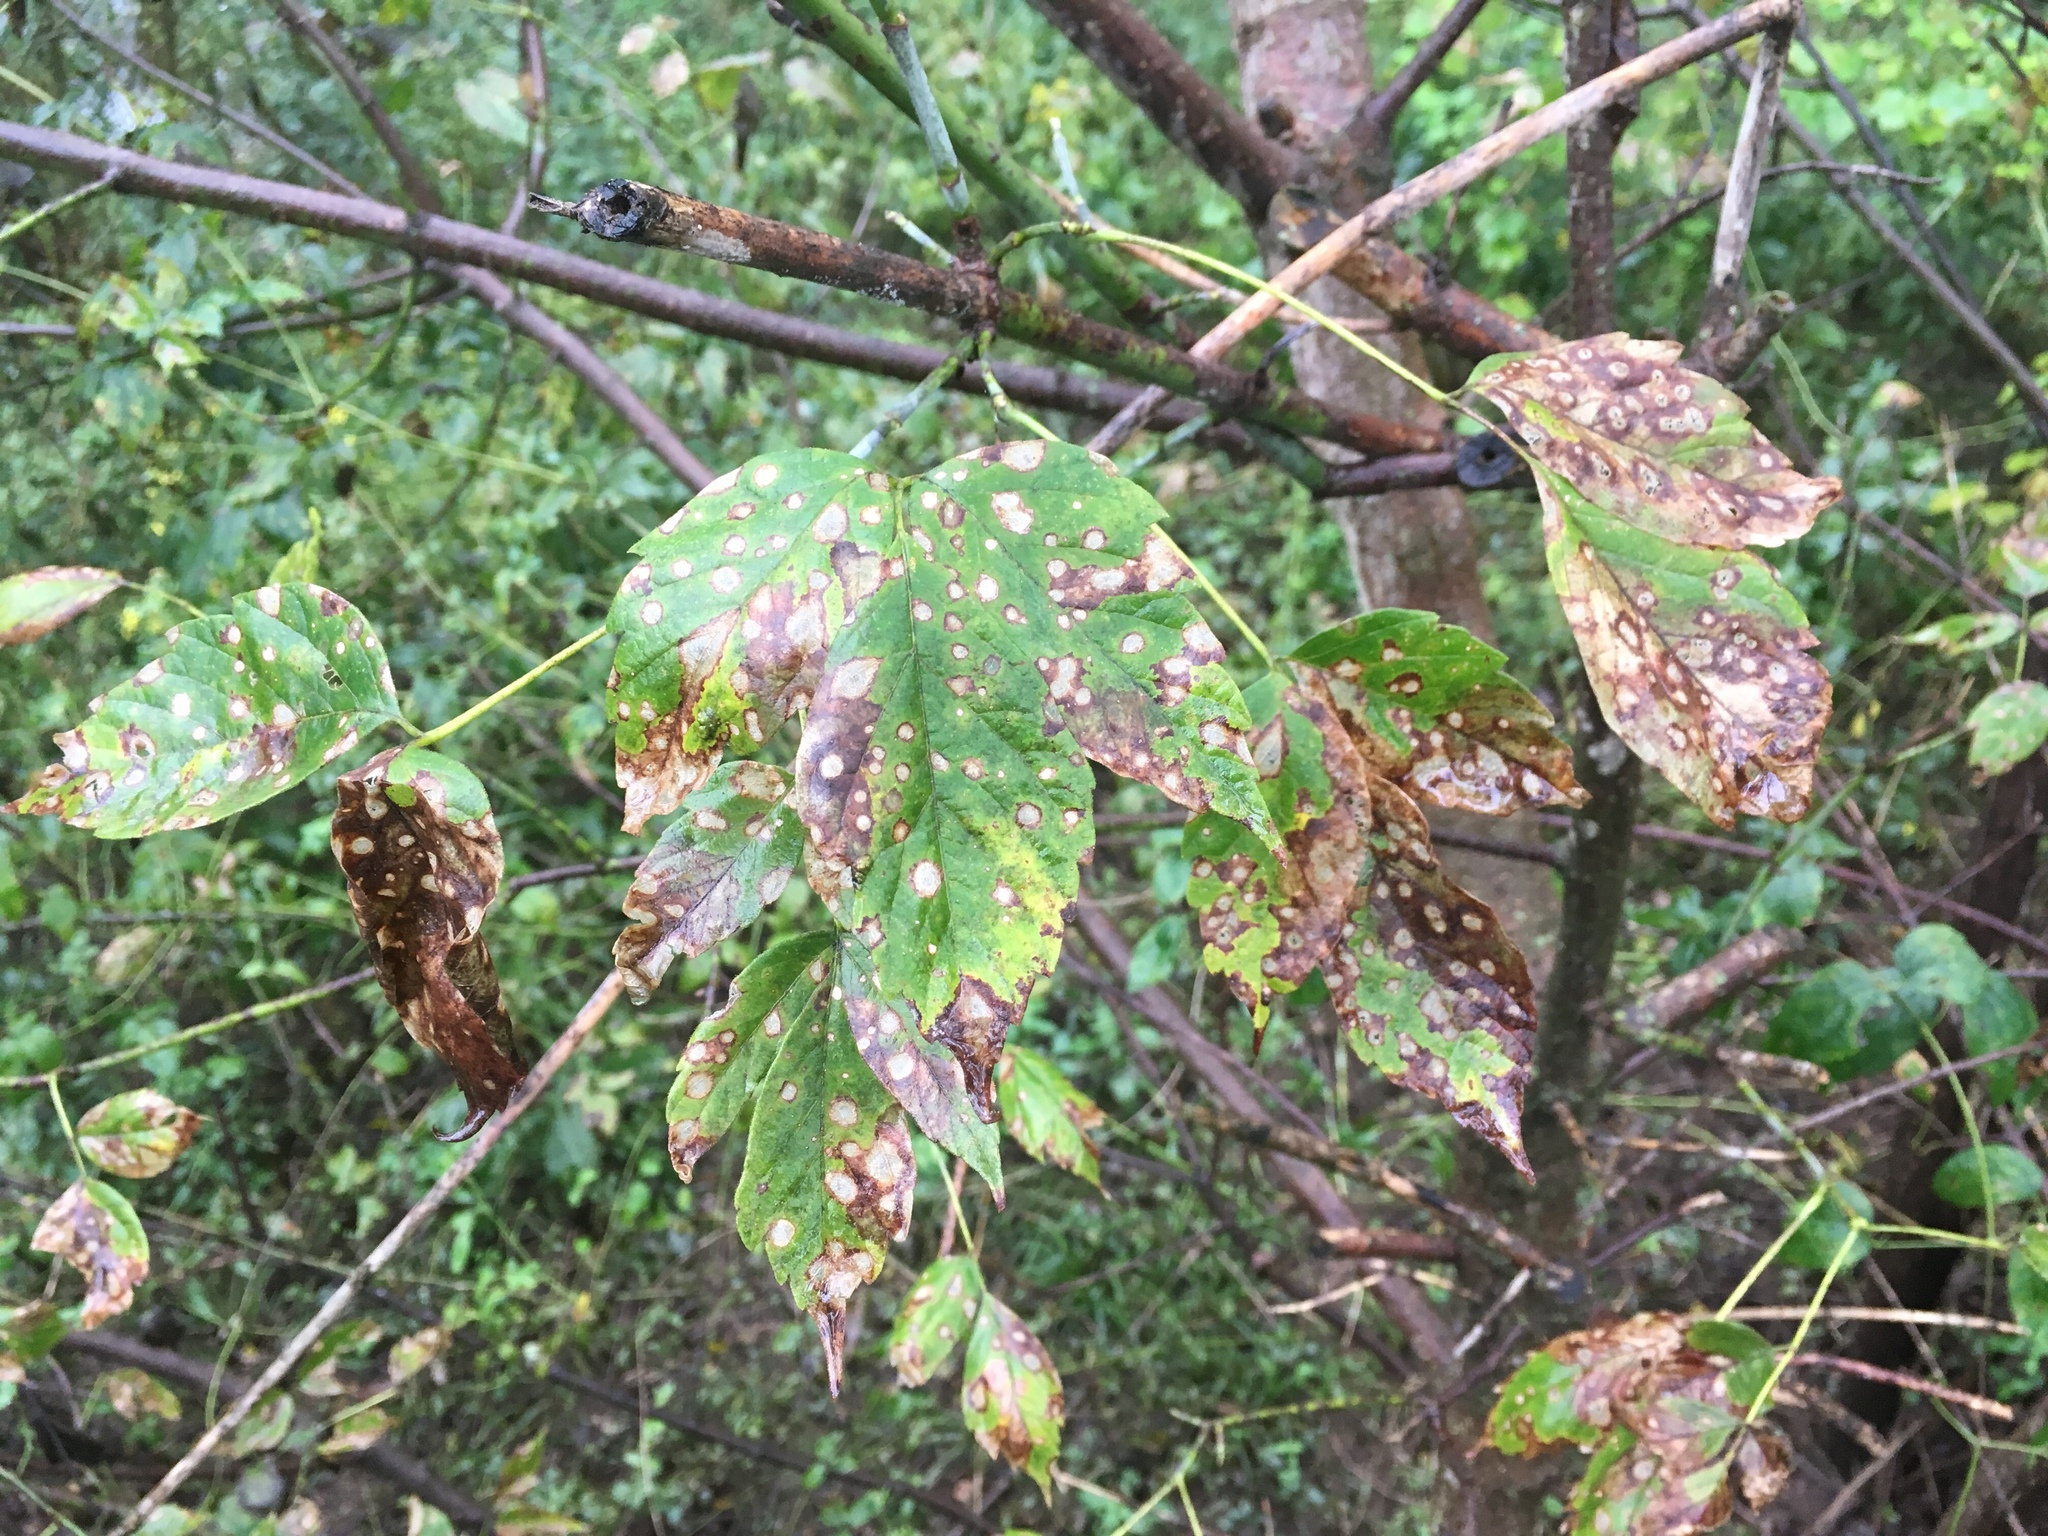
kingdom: Plantae
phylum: Tracheophyta
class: Magnoliopsida
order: Sapindales
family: Sapindaceae
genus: Acer
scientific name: Acer negundo
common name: Ashleaf maple
